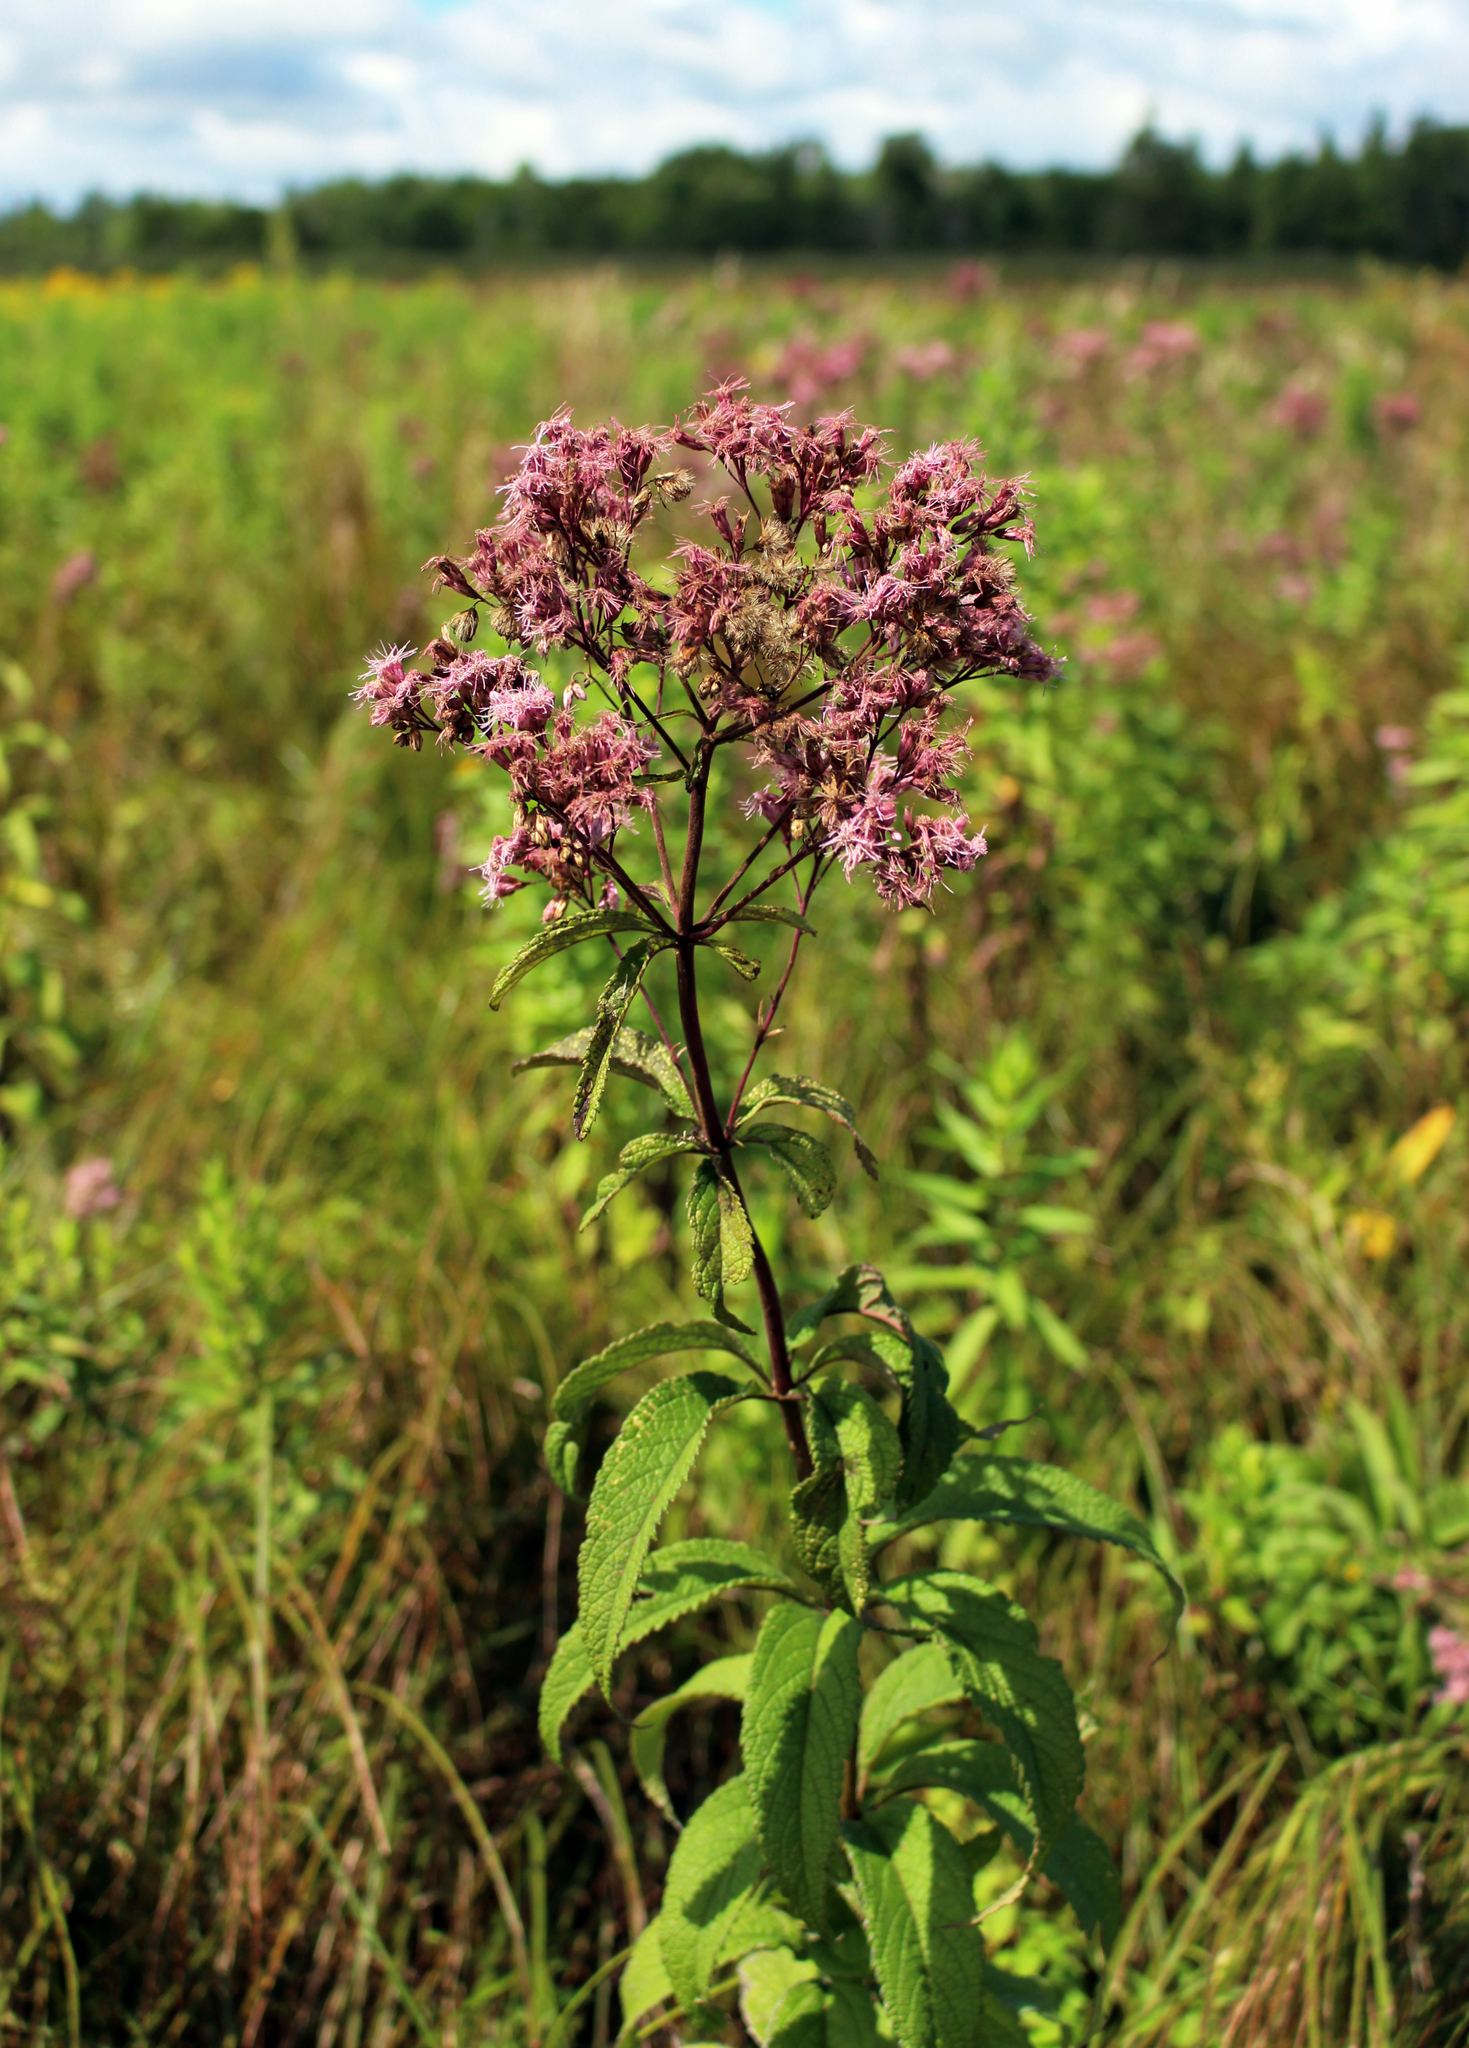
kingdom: Plantae
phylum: Tracheophyta
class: Magnoliopsida
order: Asterales
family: Asteraceae
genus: Eutrochium
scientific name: Eutrochium maculatum
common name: Spotted joe pye weed
